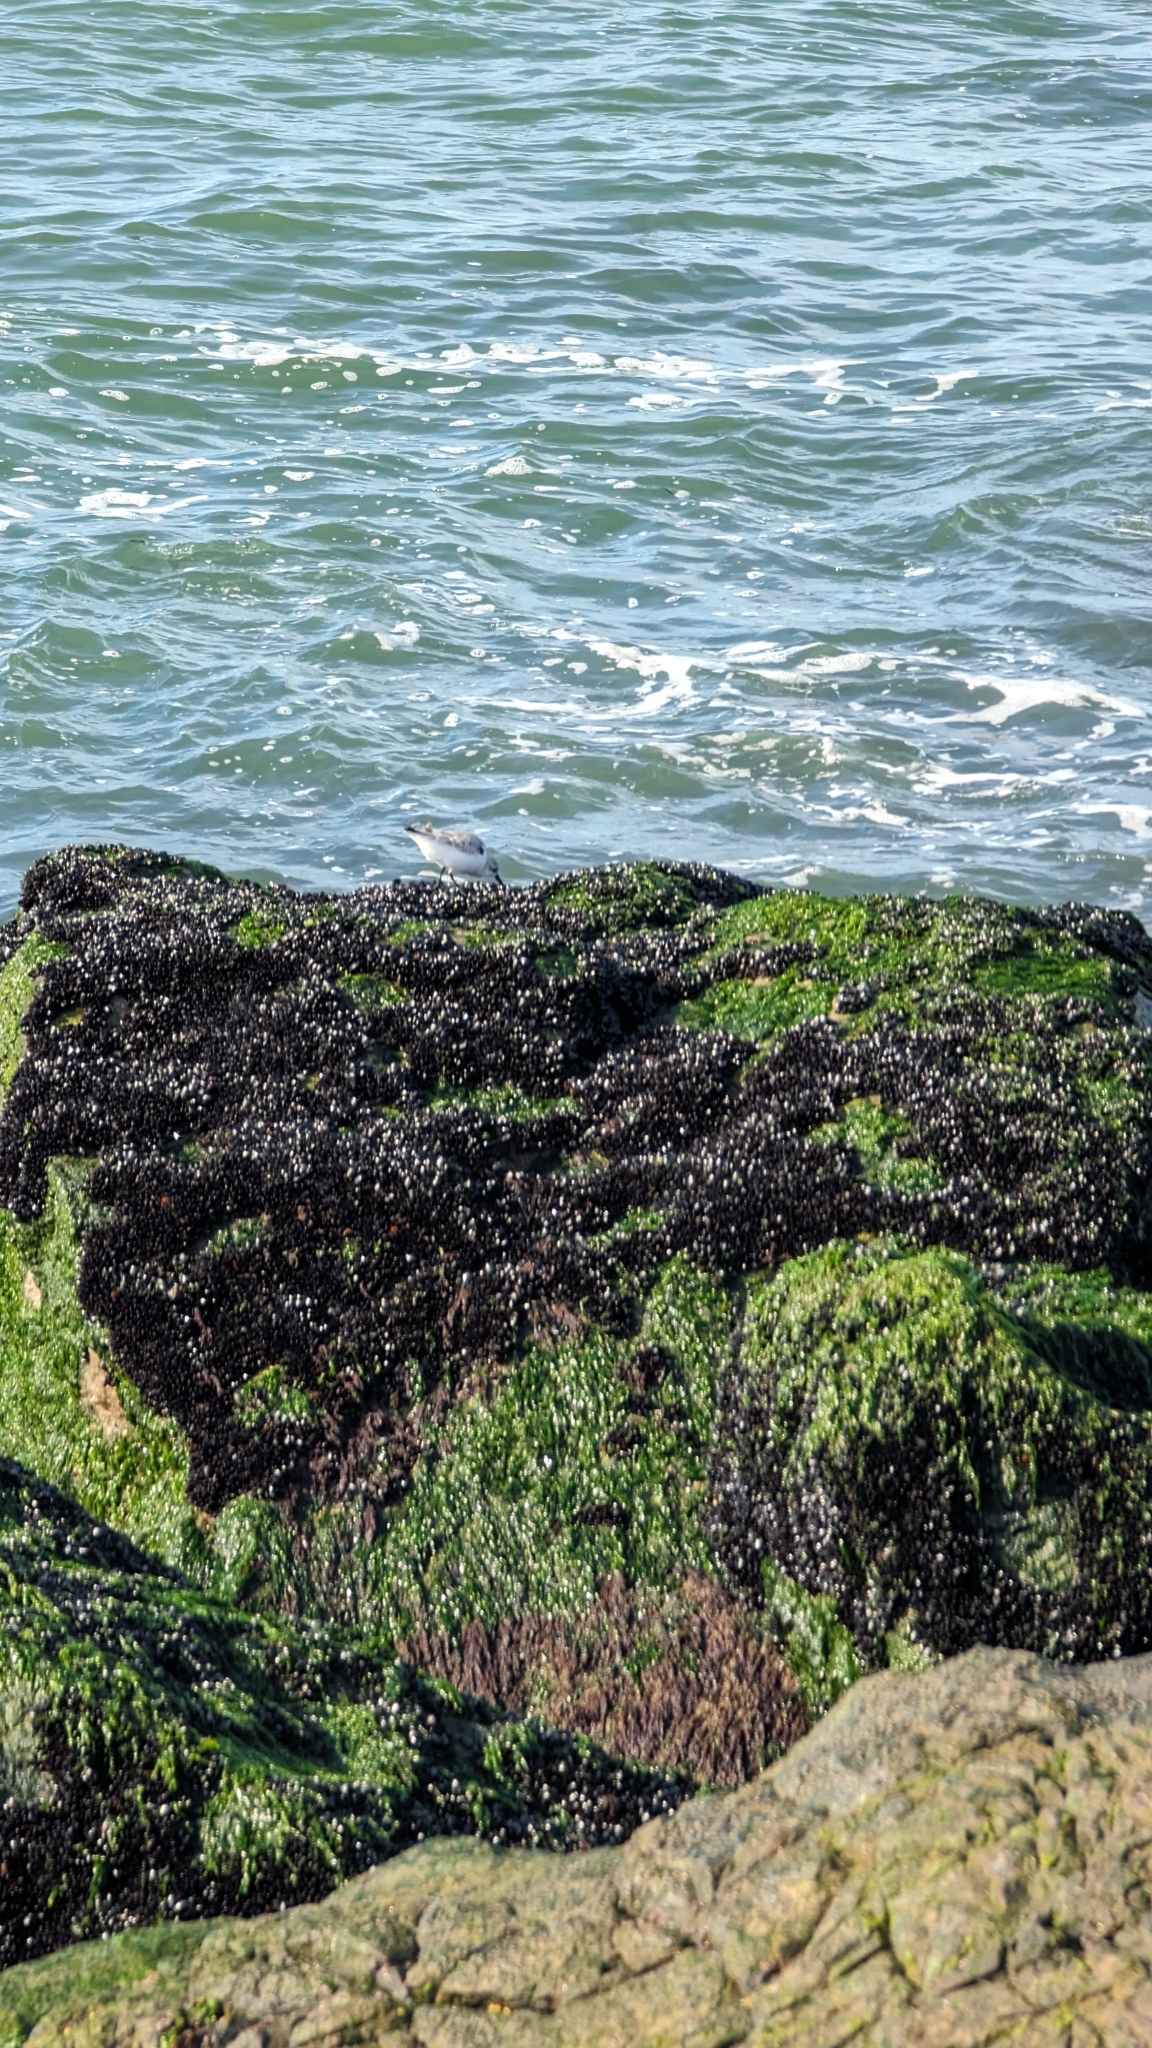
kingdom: Animalia
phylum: Chordata
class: Aves
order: Charadriiformes
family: Scolopacidae
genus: Calidris
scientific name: Calidris alba
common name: Sanderling
